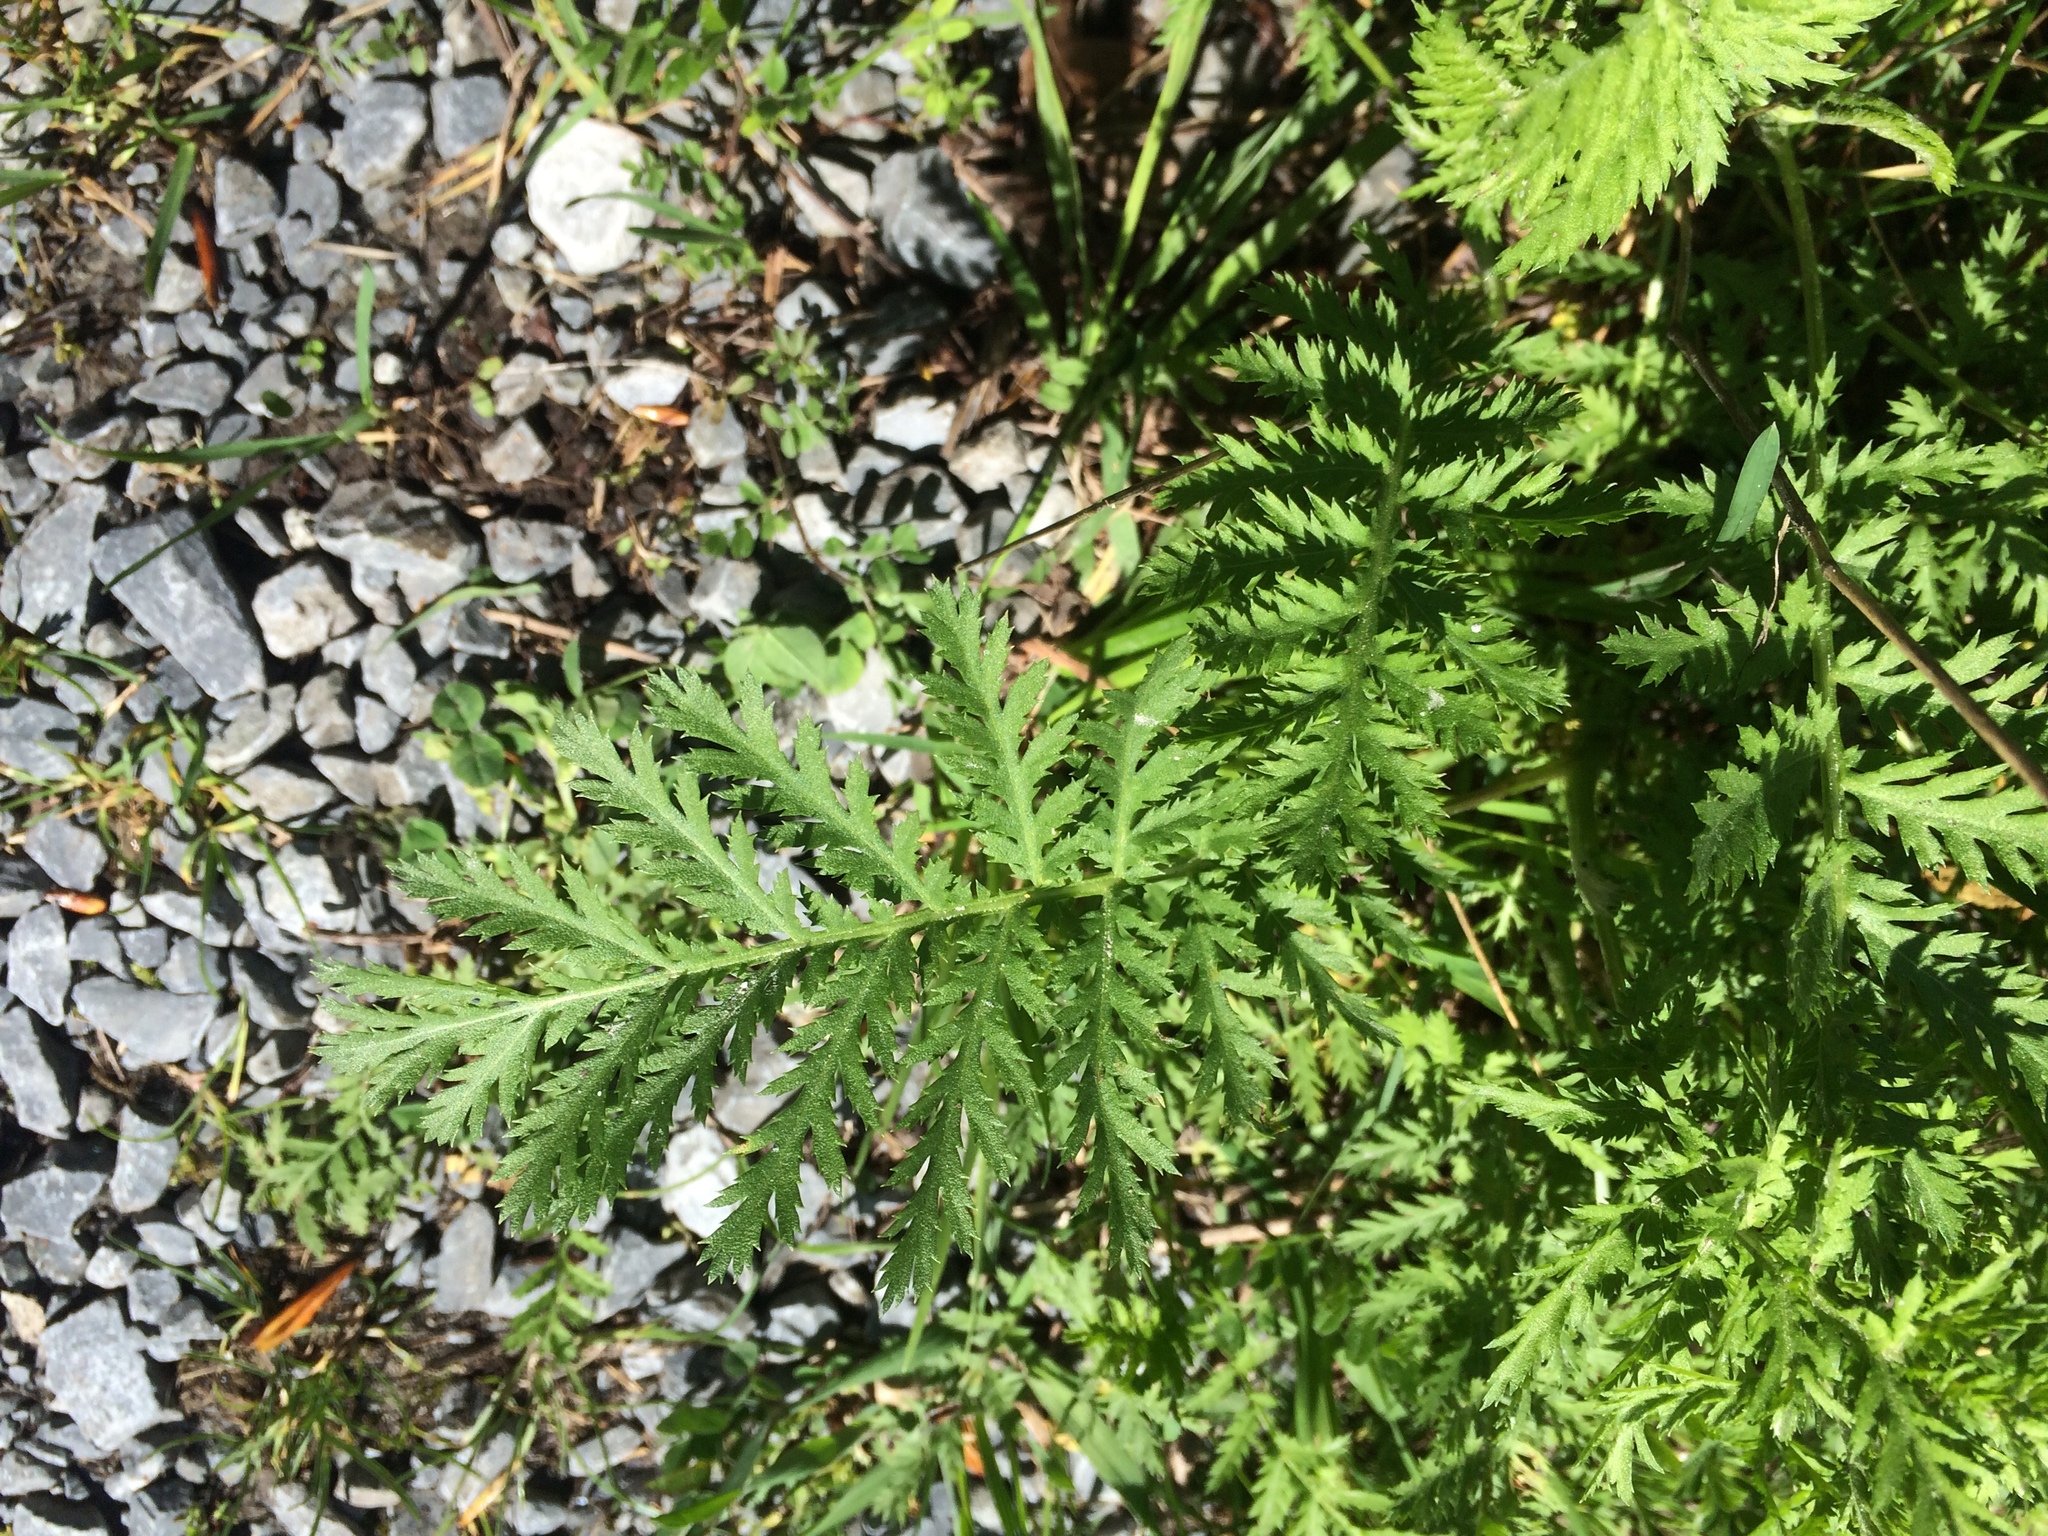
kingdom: Plantae
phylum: Tracheophyta
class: Magnoliopsida
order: Asterales
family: Asteraceae
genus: Tanacetum
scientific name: Tanacetum vulgare
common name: Common tansy
